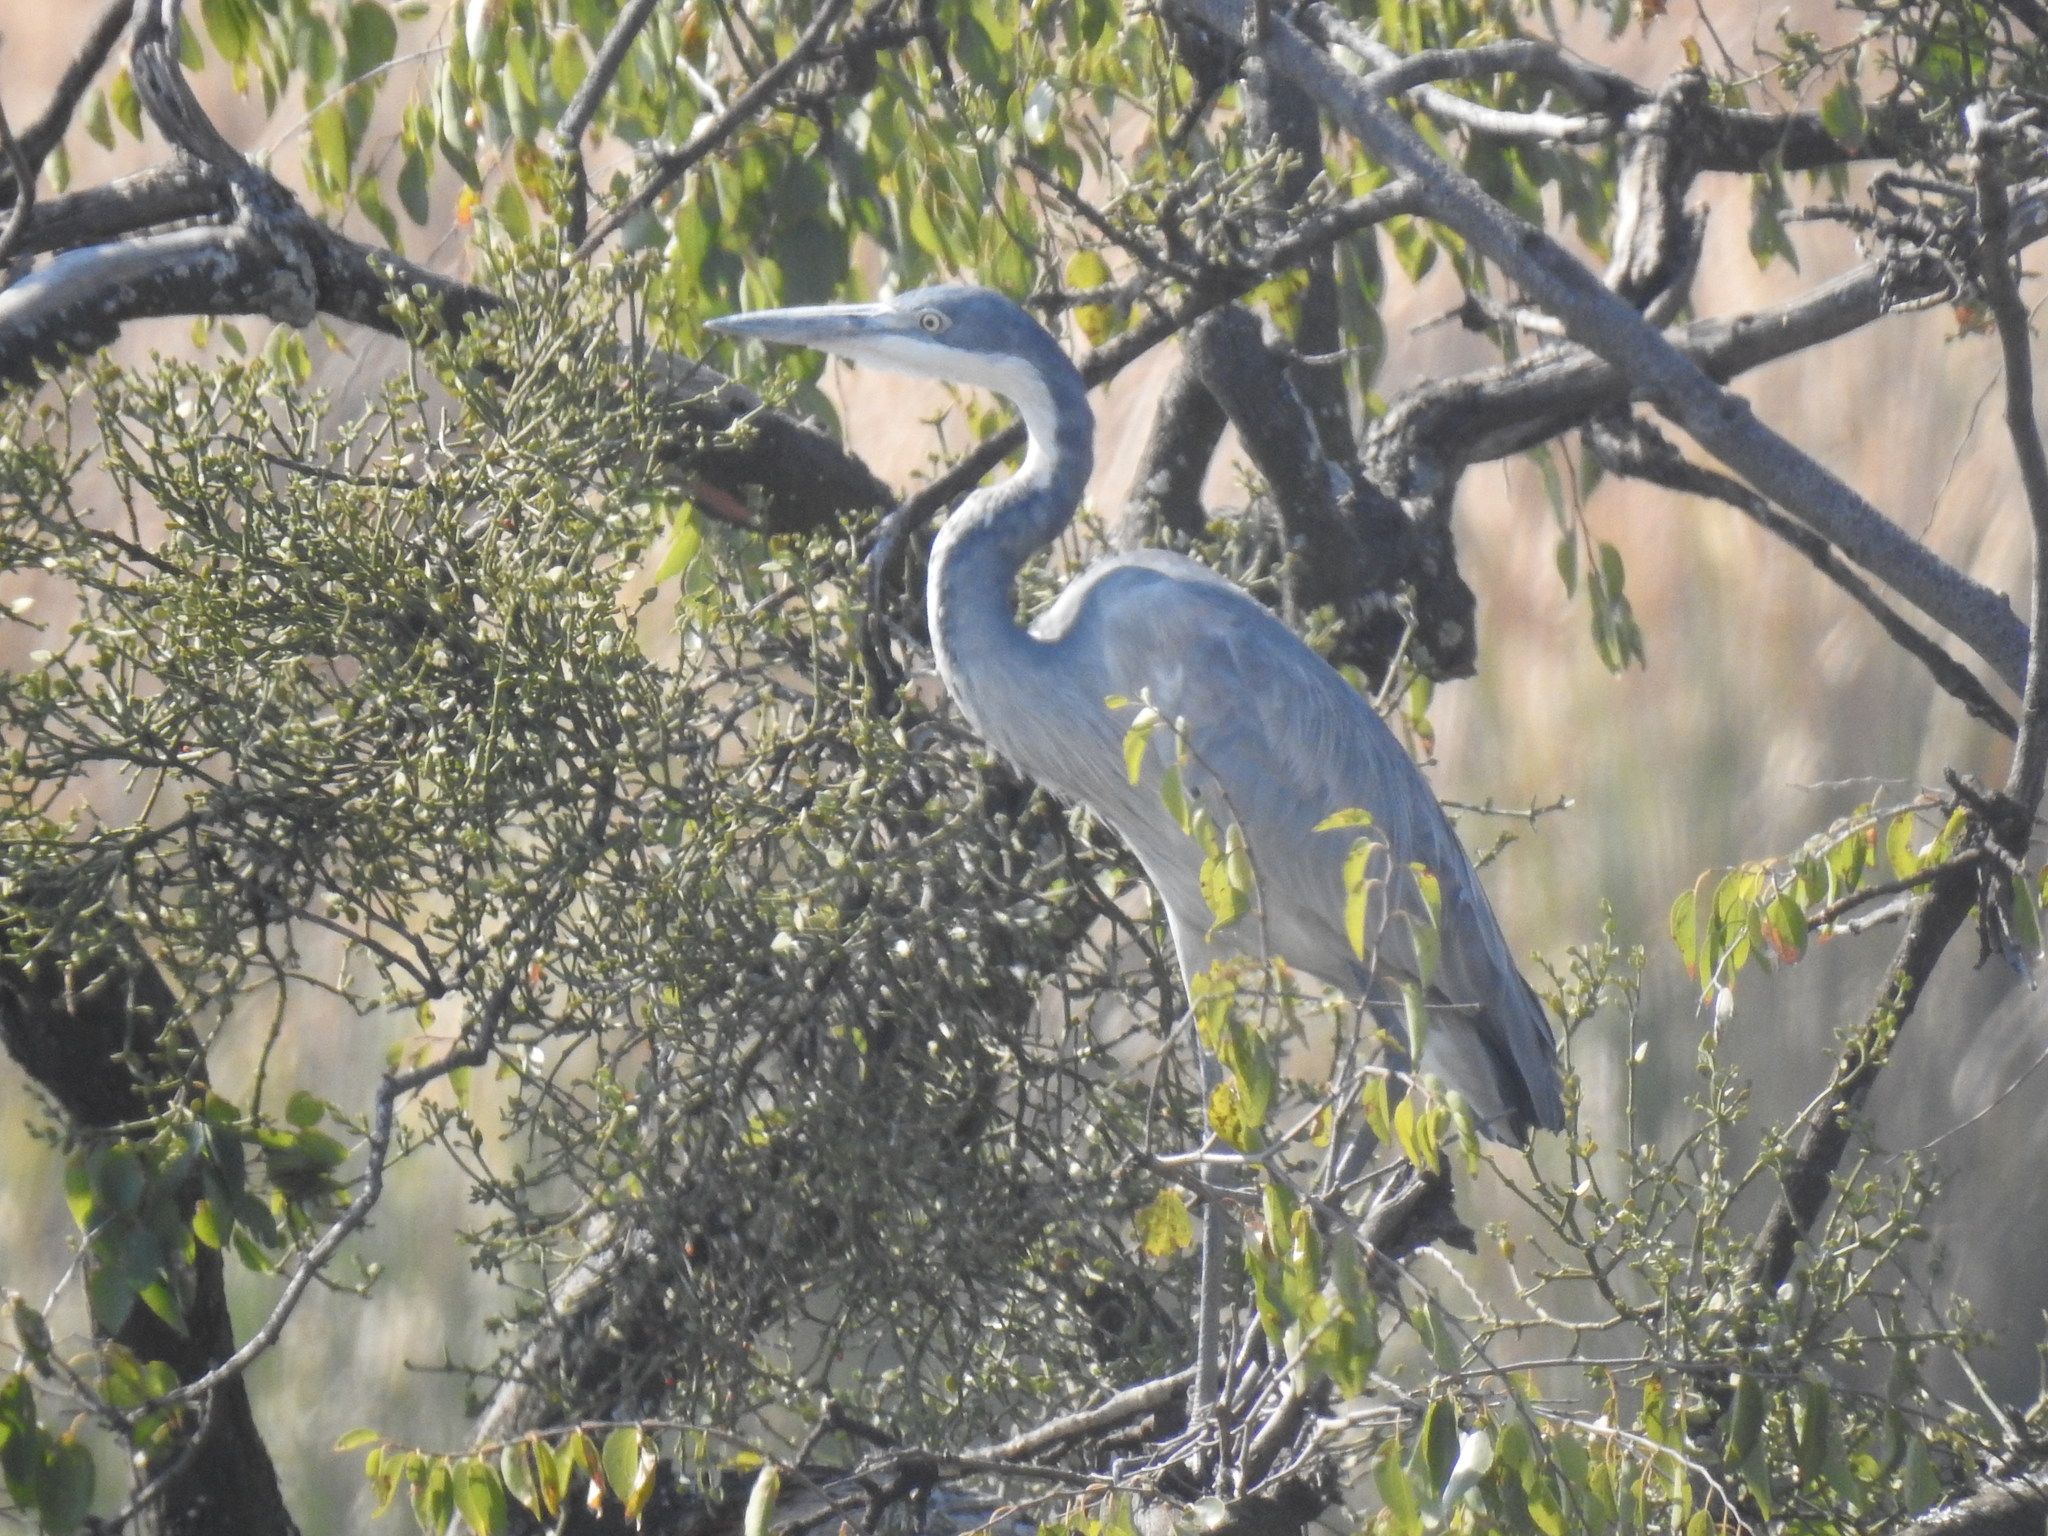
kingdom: Animalia
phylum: Chordata
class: Aves
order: Pelecaniformes
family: Ardeidae
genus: Ardea
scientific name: Ardea melanocephala
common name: Black-headed heron
